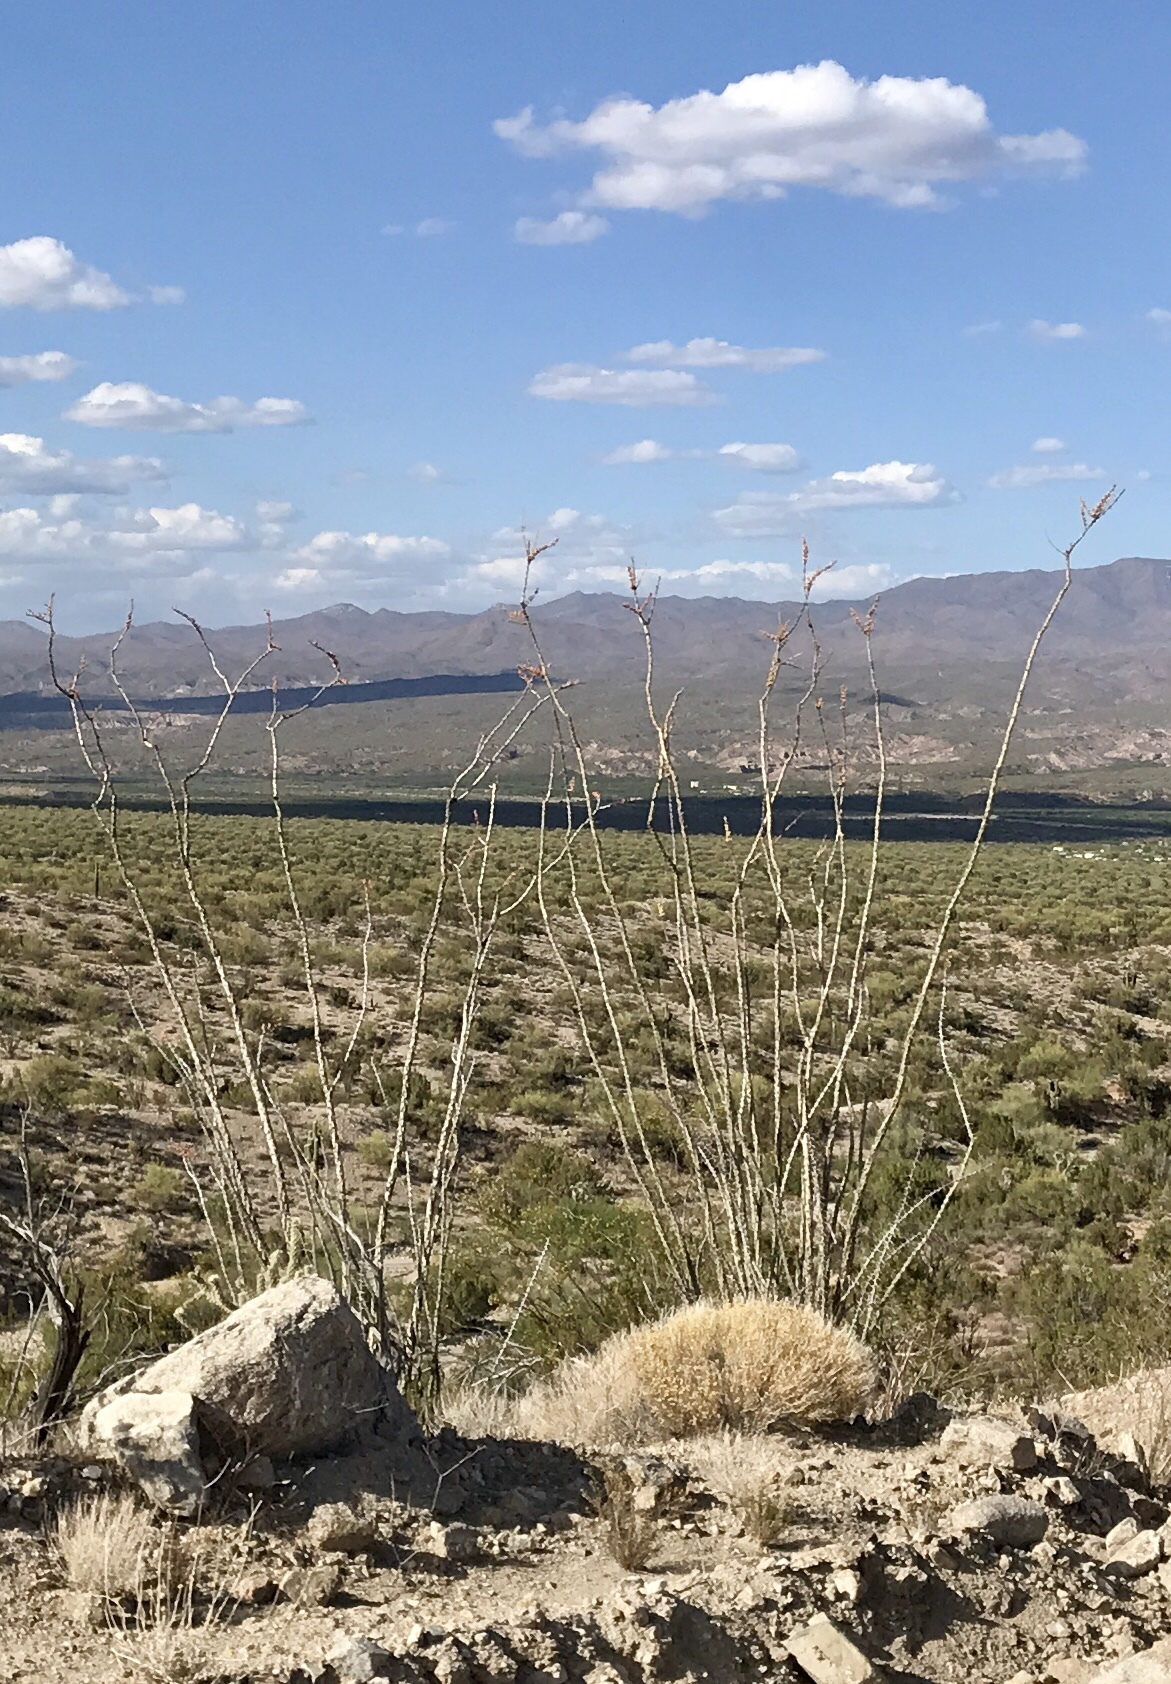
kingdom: Plantae
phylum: Tracheophyta
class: Magnoliopsida
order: Ericales
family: Fouquieriaceae
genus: Fouquieria
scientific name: Fouquieria splendens
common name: Vine-cactus
